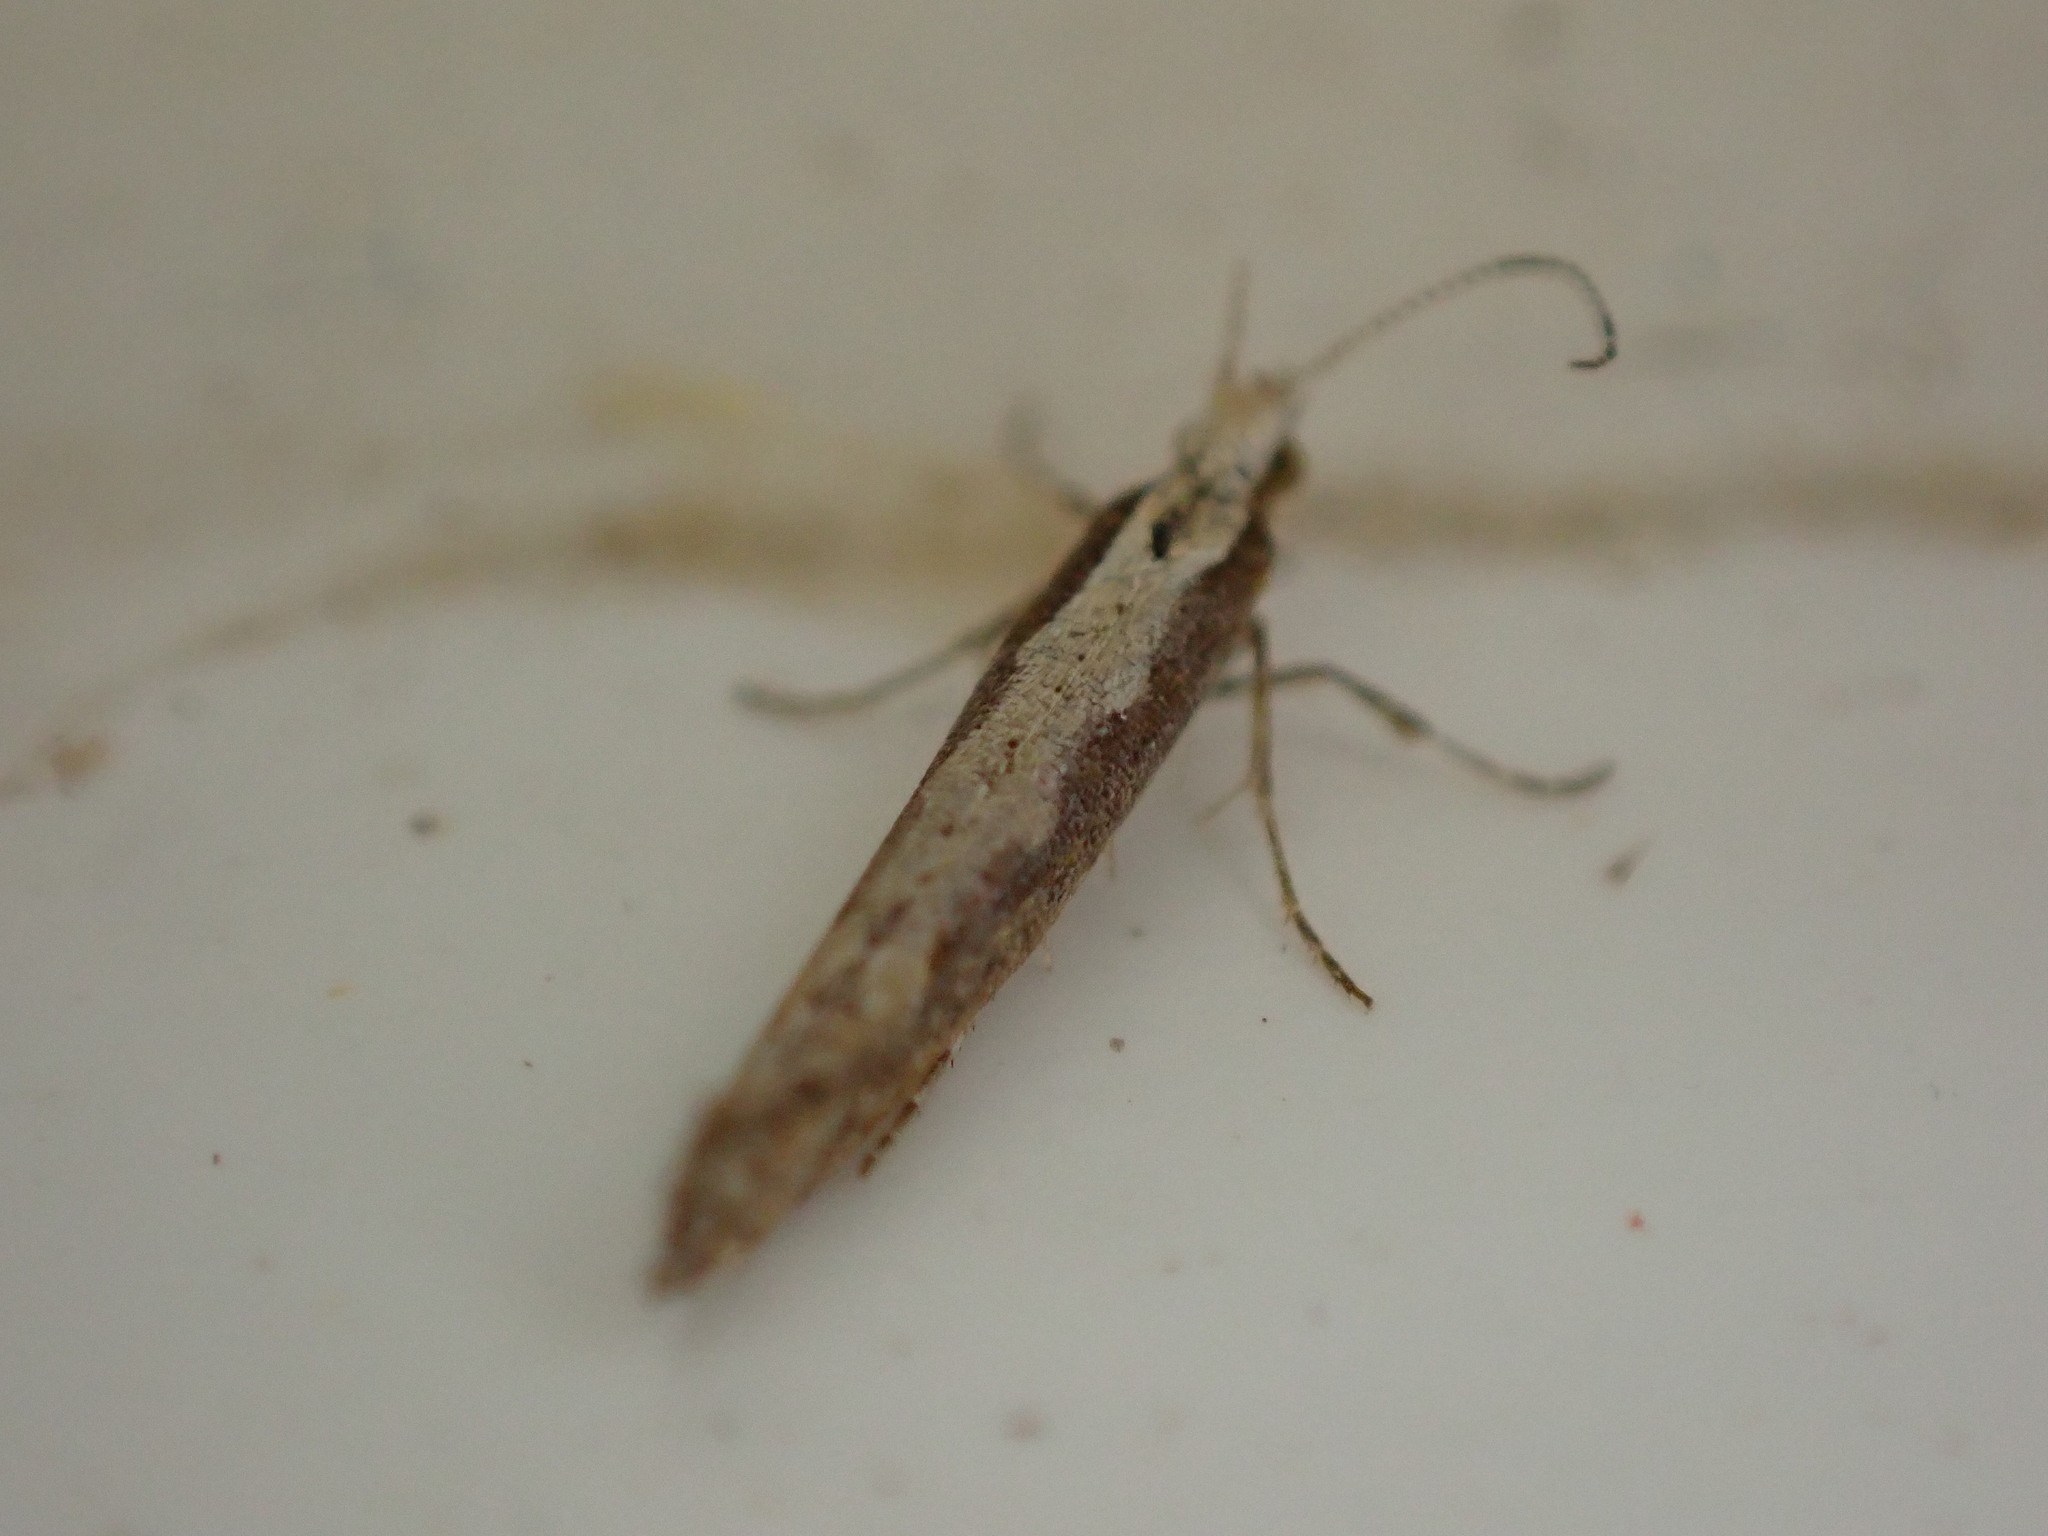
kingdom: Animalia
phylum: Arthropoda
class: Insecta
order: Lepidoptera
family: Plutellidae
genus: Plutella
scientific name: Plutella xylostella
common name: Diamond-back moth
